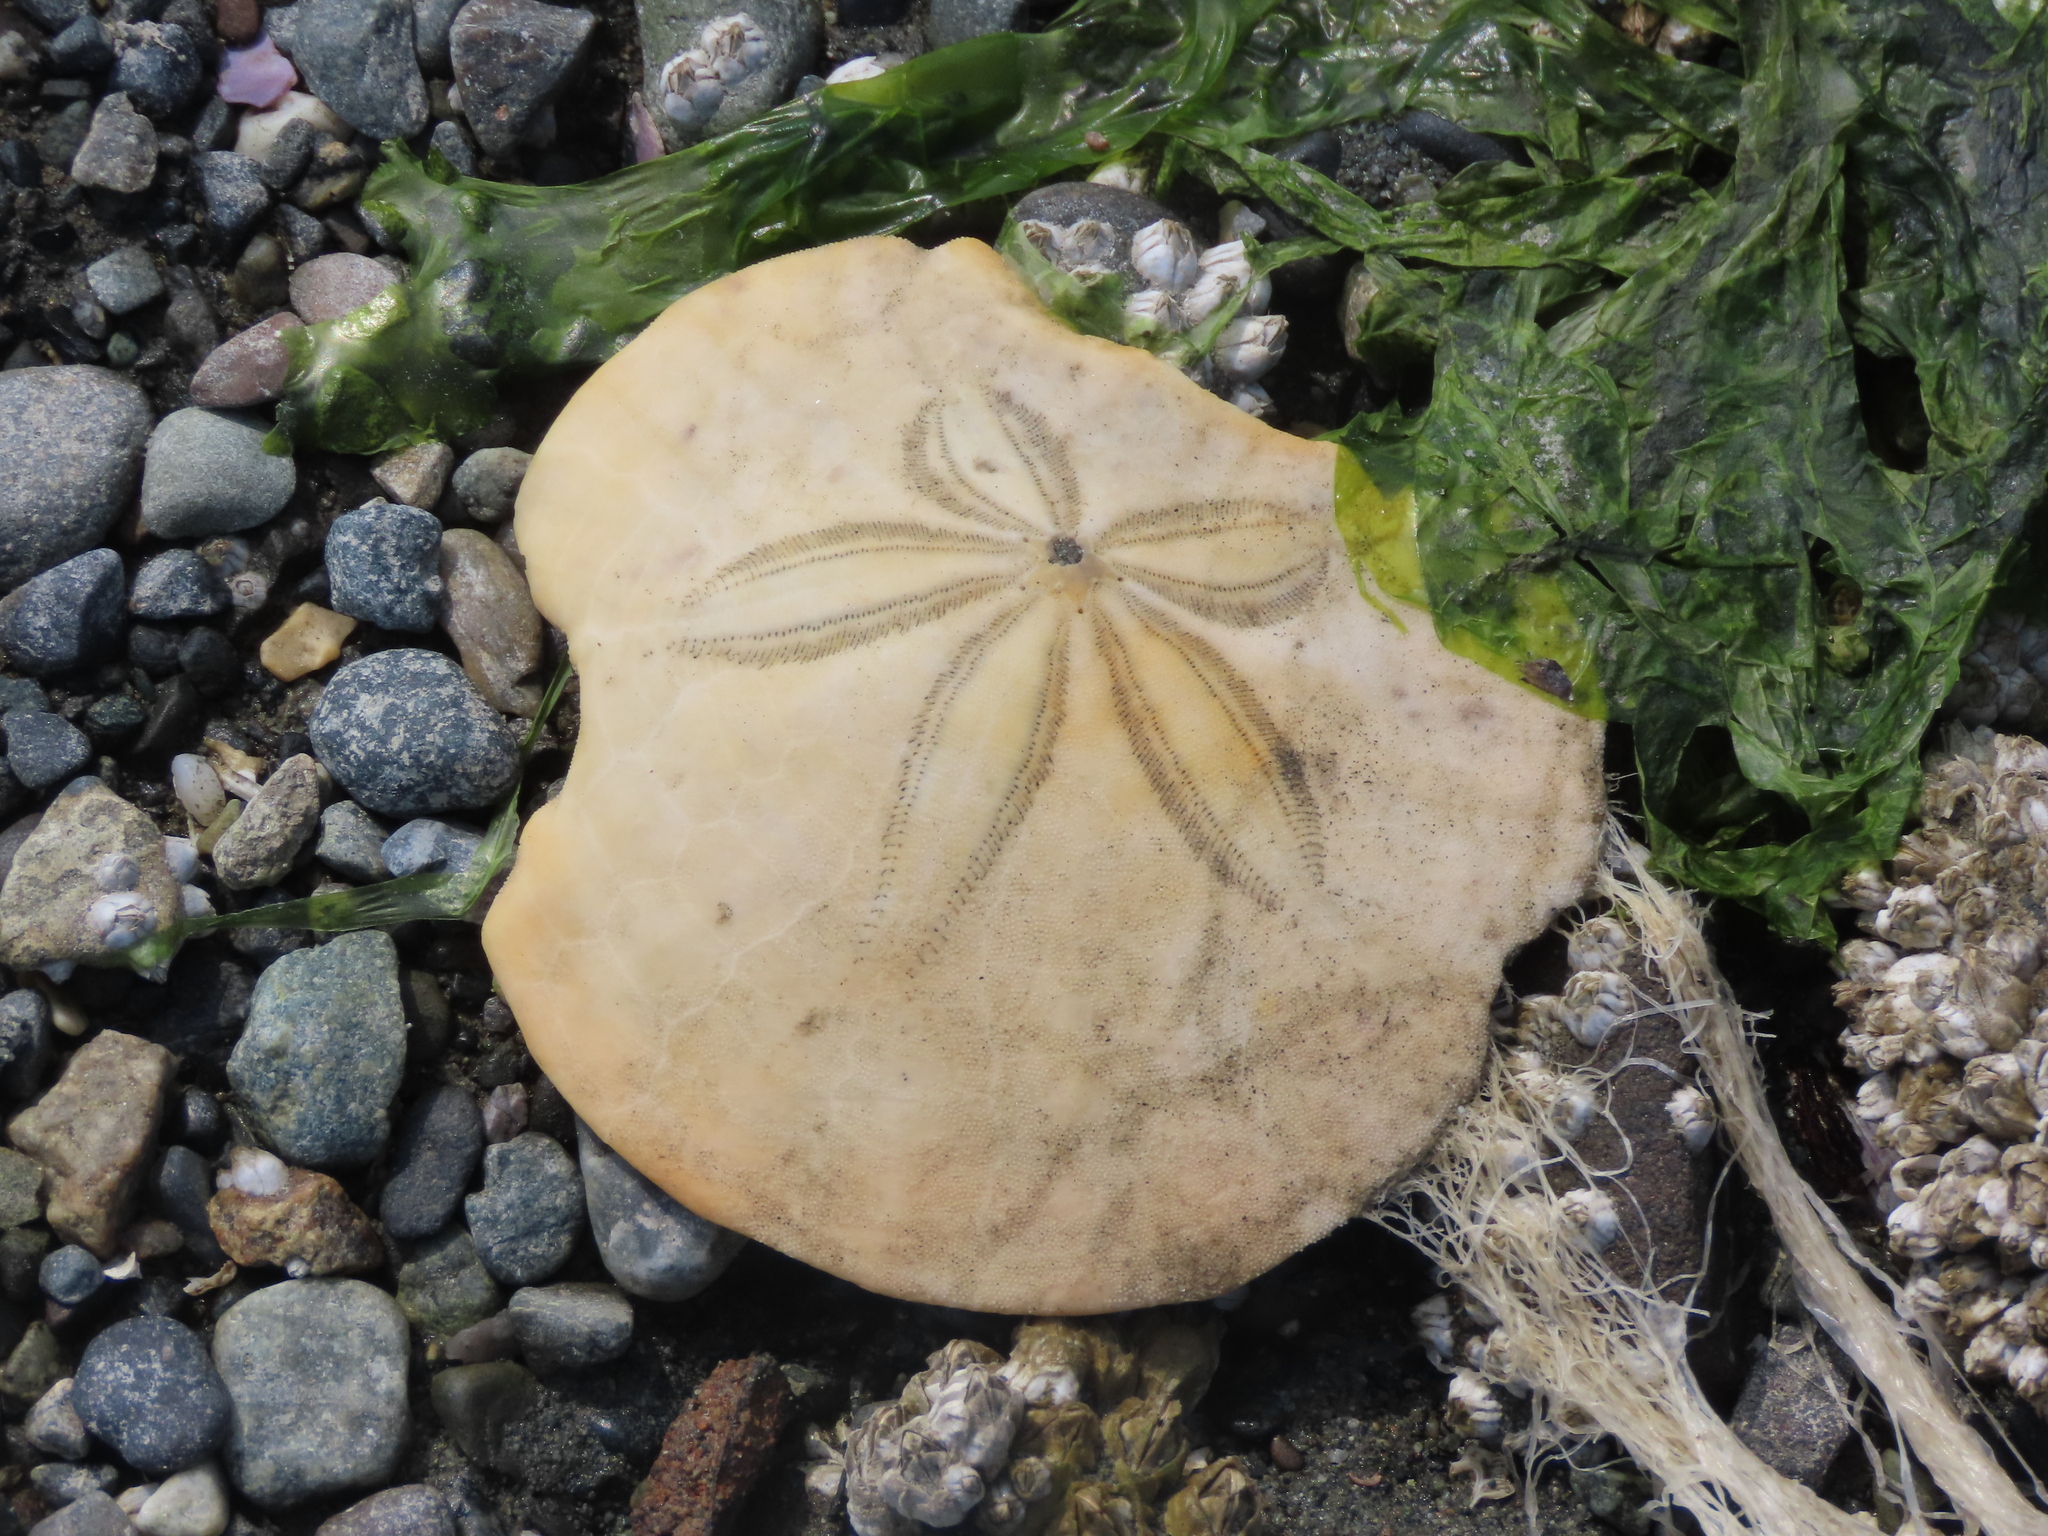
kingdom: Animalia
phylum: Echinodermata
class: Echinoidea
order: Echinolampadacea
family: Dendrasteridae
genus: Dendraster
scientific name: Dendraster excentricus
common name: Eccentric sand dollar sea urchin
